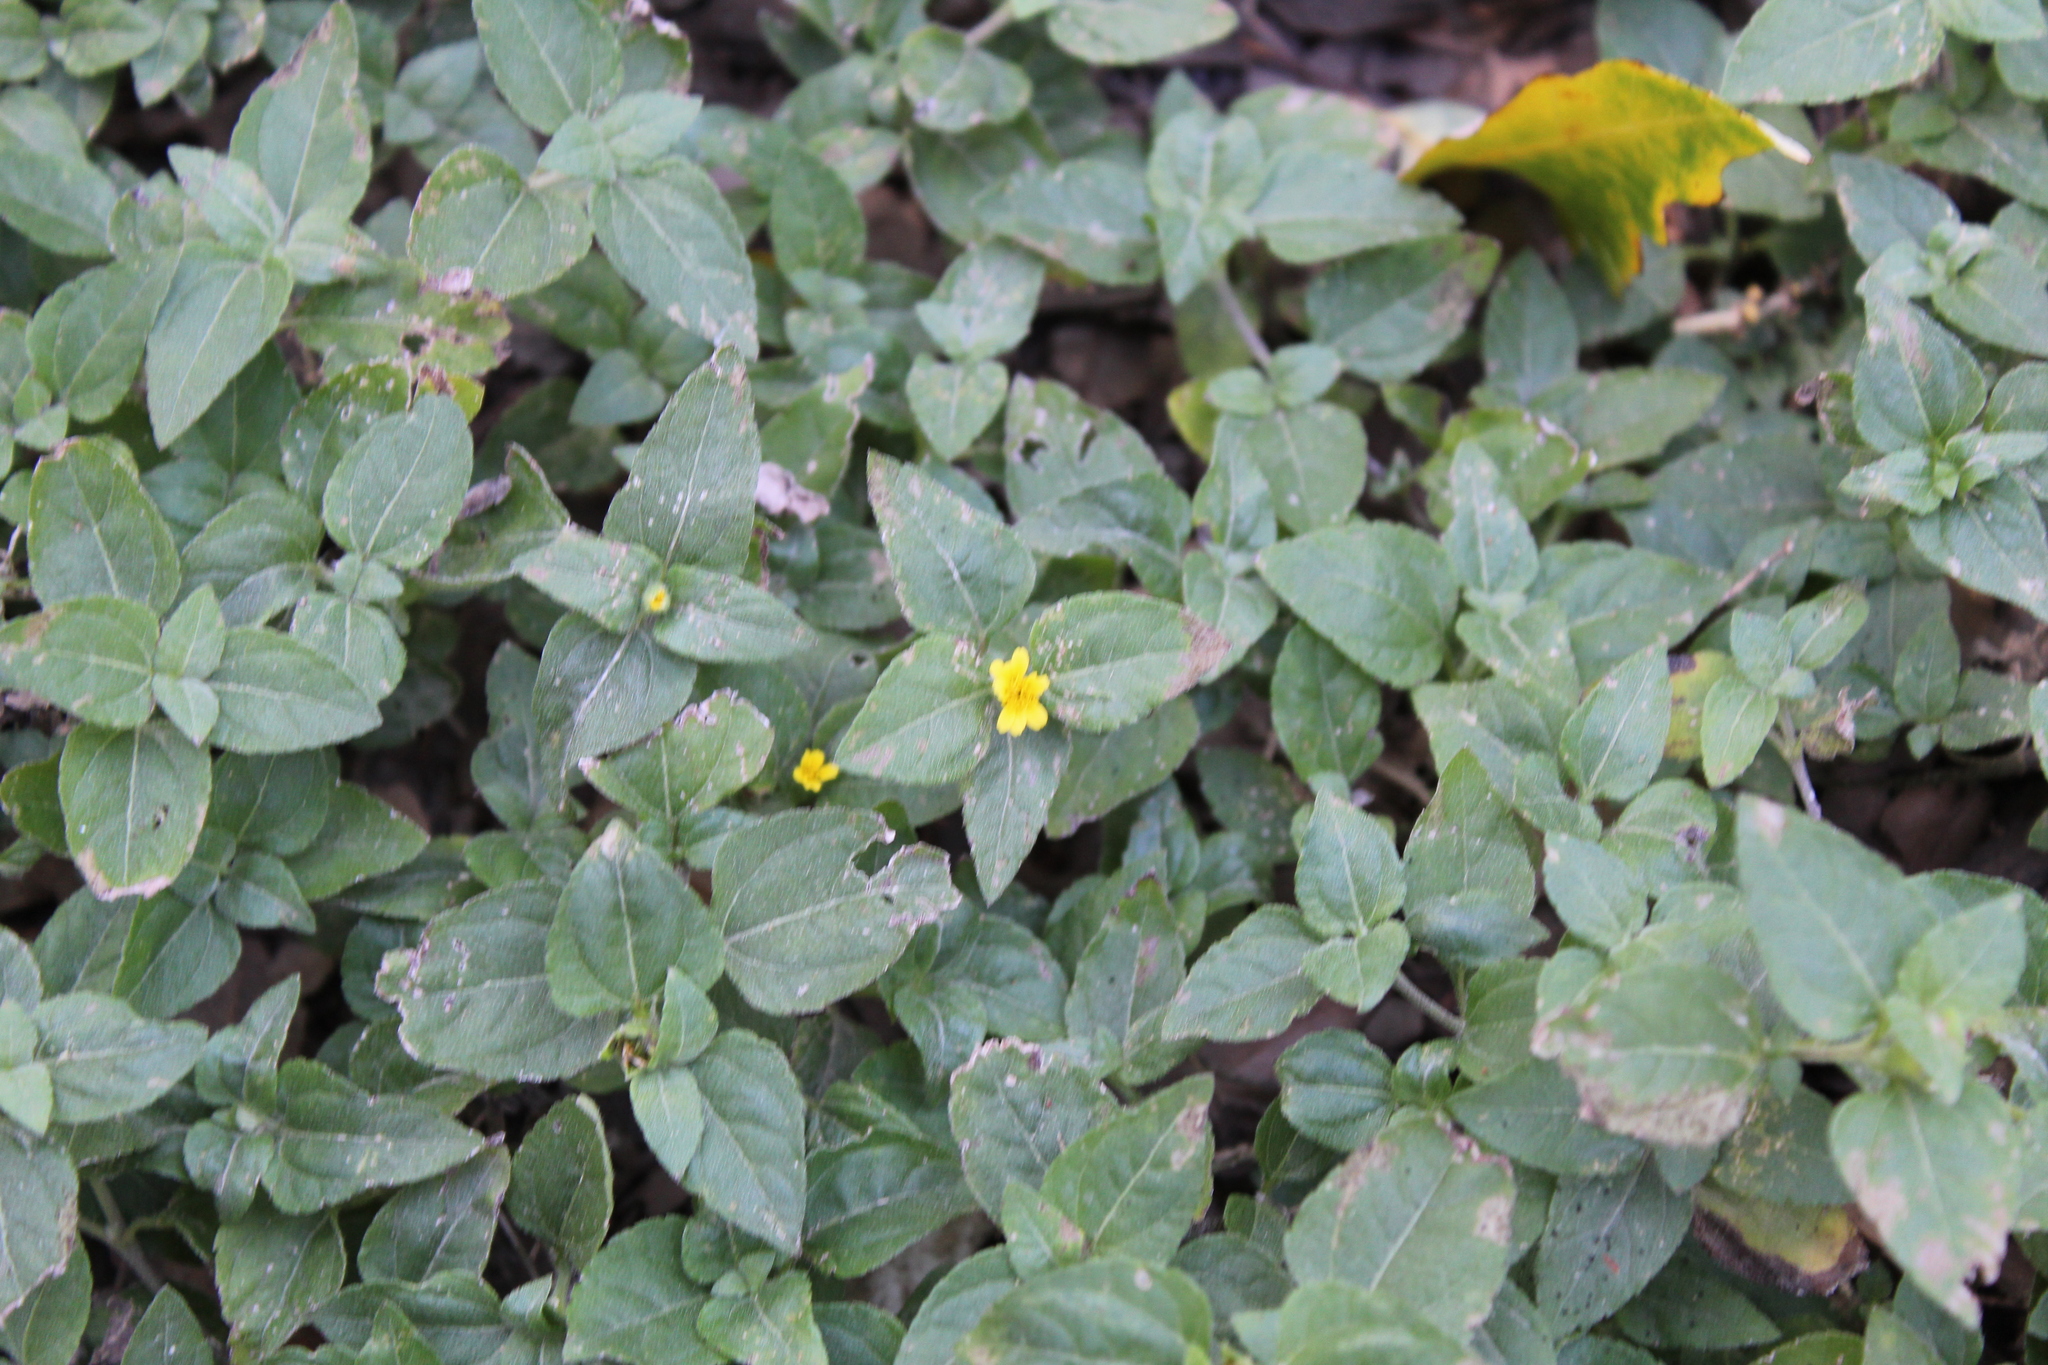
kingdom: Plantae
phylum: Tracheophyta
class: Magnoliopsida
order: Asterales
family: Asteraceae
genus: Calyptocarpus
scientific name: Calyptocarpus vialis
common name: Straggler daisy
